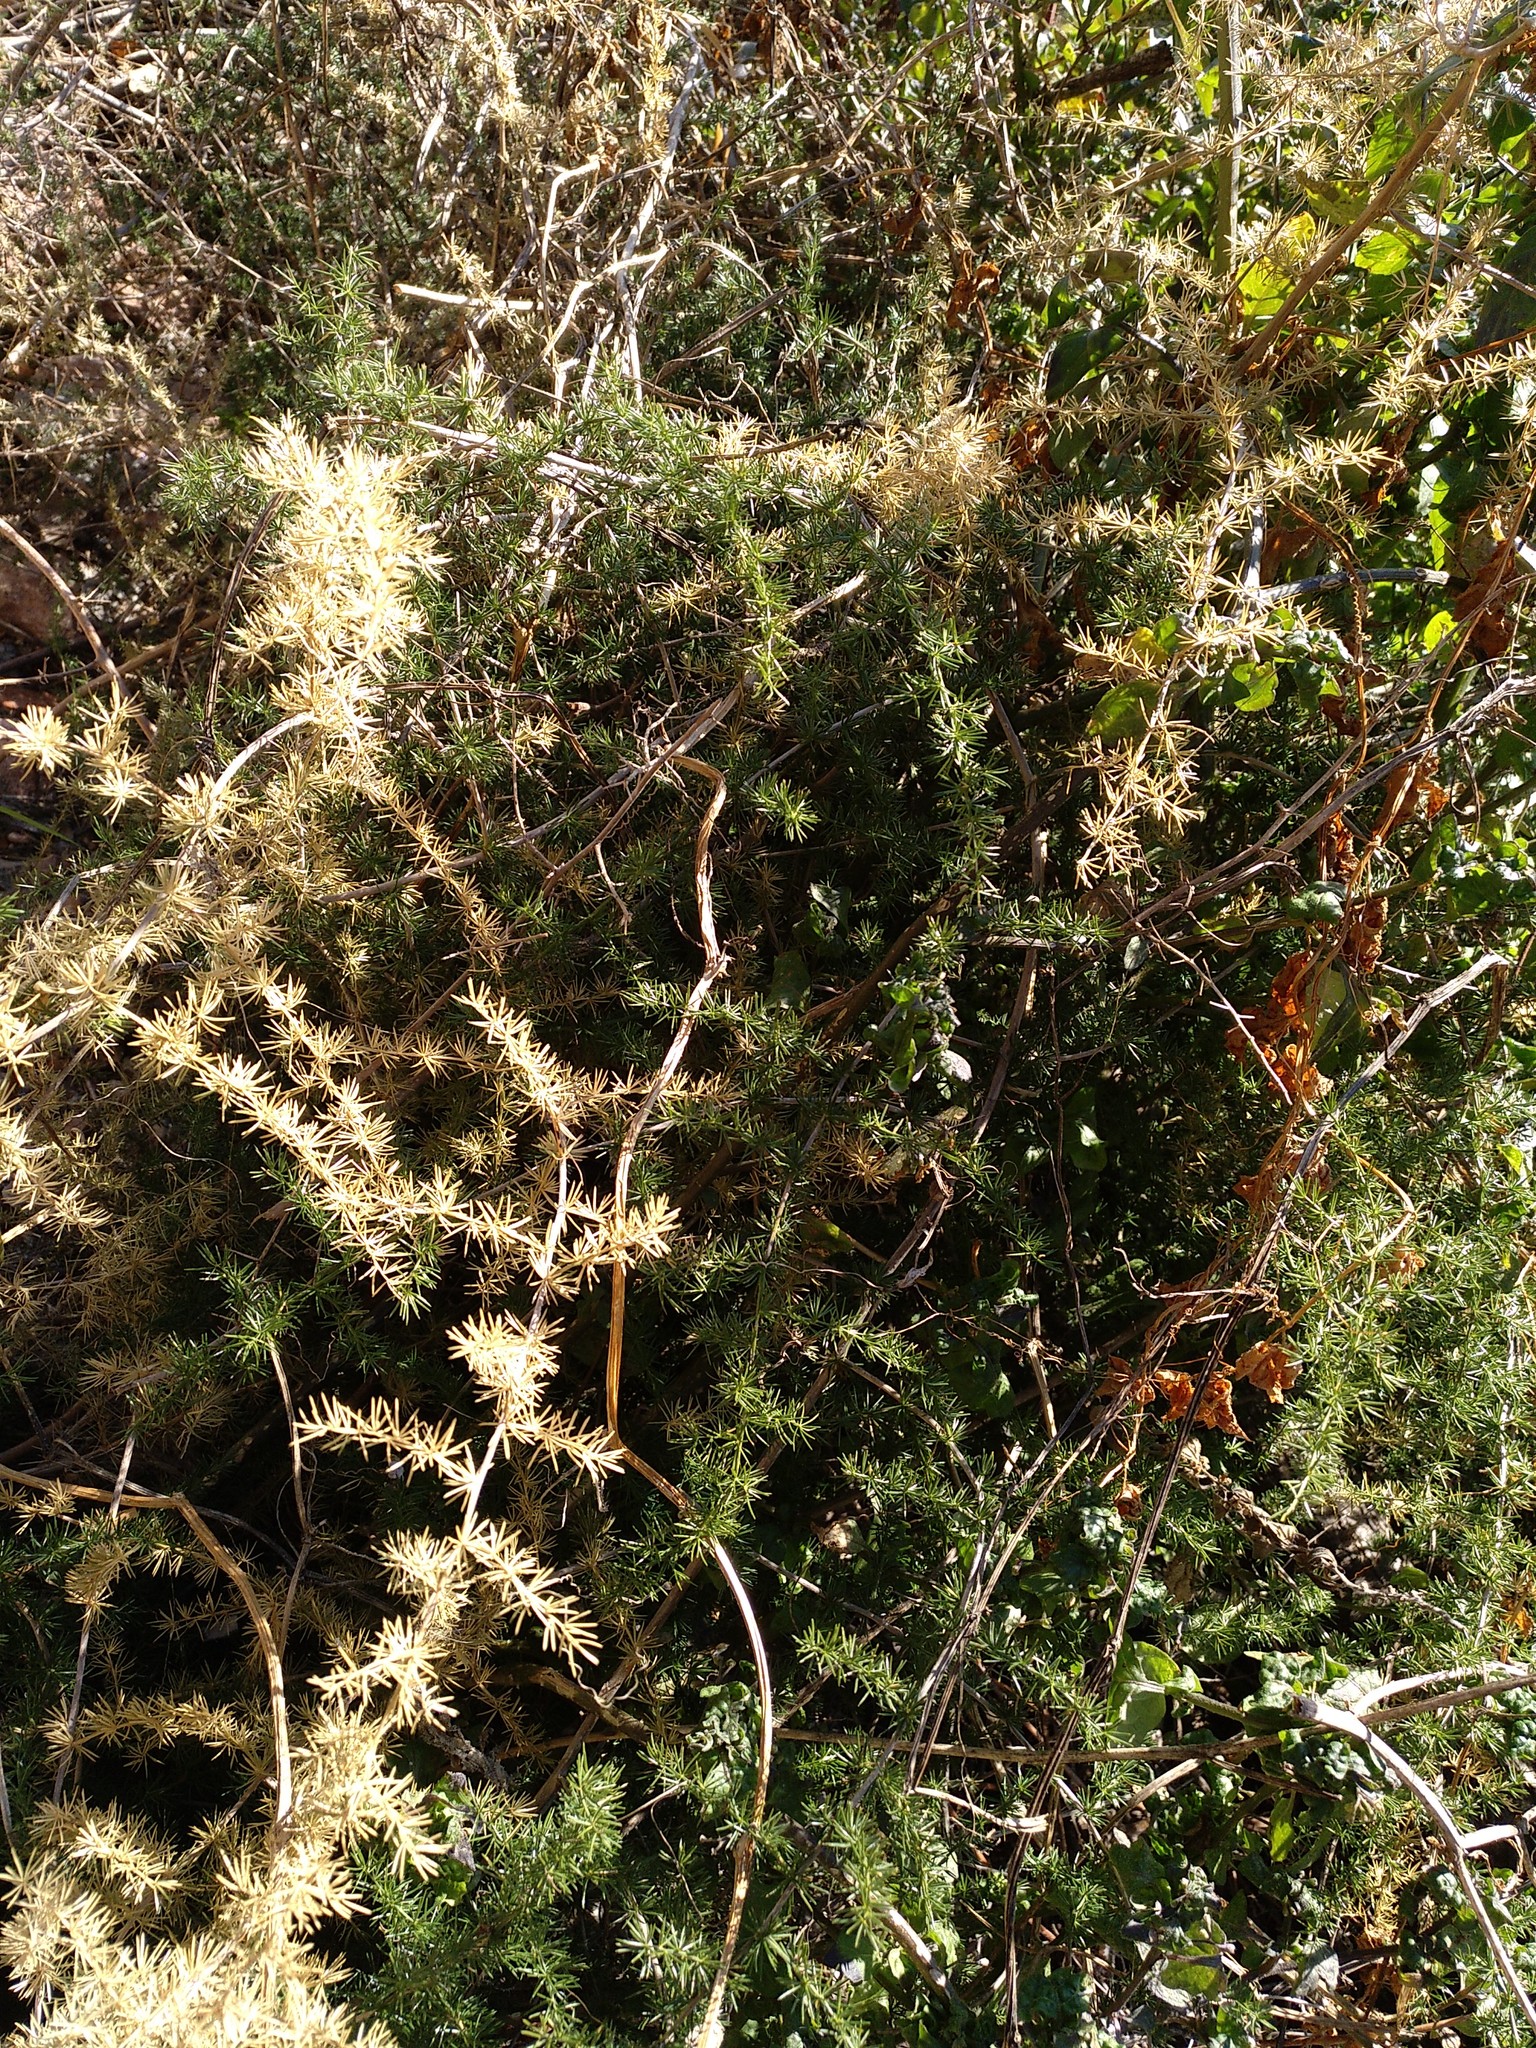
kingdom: Plantae
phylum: Tracheophyta
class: Liliopsida
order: Asparagales
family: Asparagaceae
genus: Asparagus
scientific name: Asparagus acutifolius
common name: Wild asparagus
